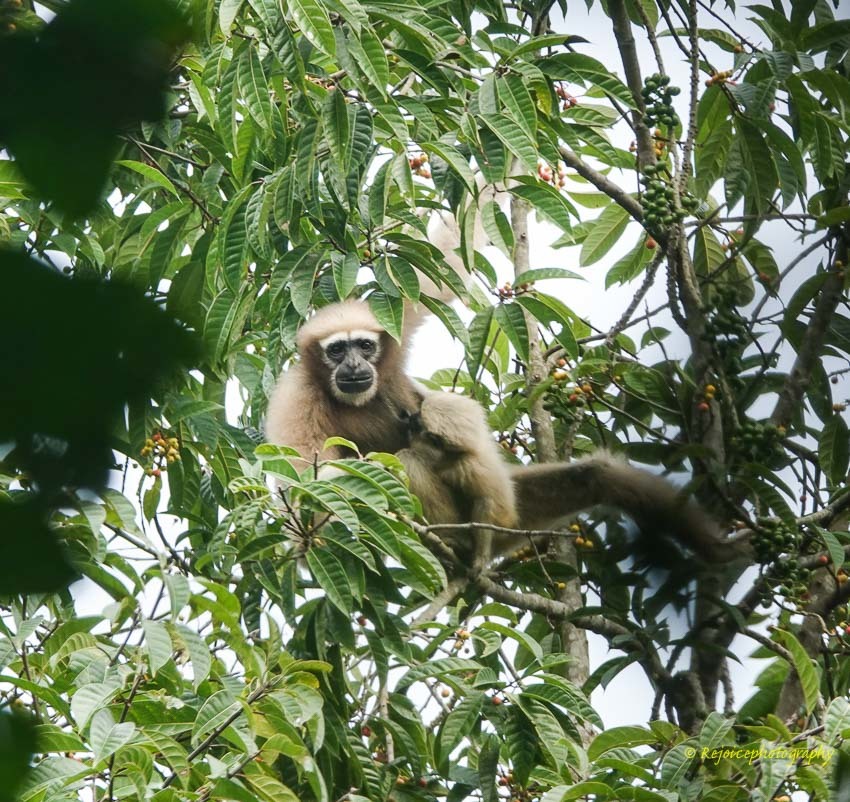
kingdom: Animalia
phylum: Chordata
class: Mammalia
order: Primates
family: Hylobatidae
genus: Hoolock
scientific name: Hoolock hoolock
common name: Western hoolock gibbon
